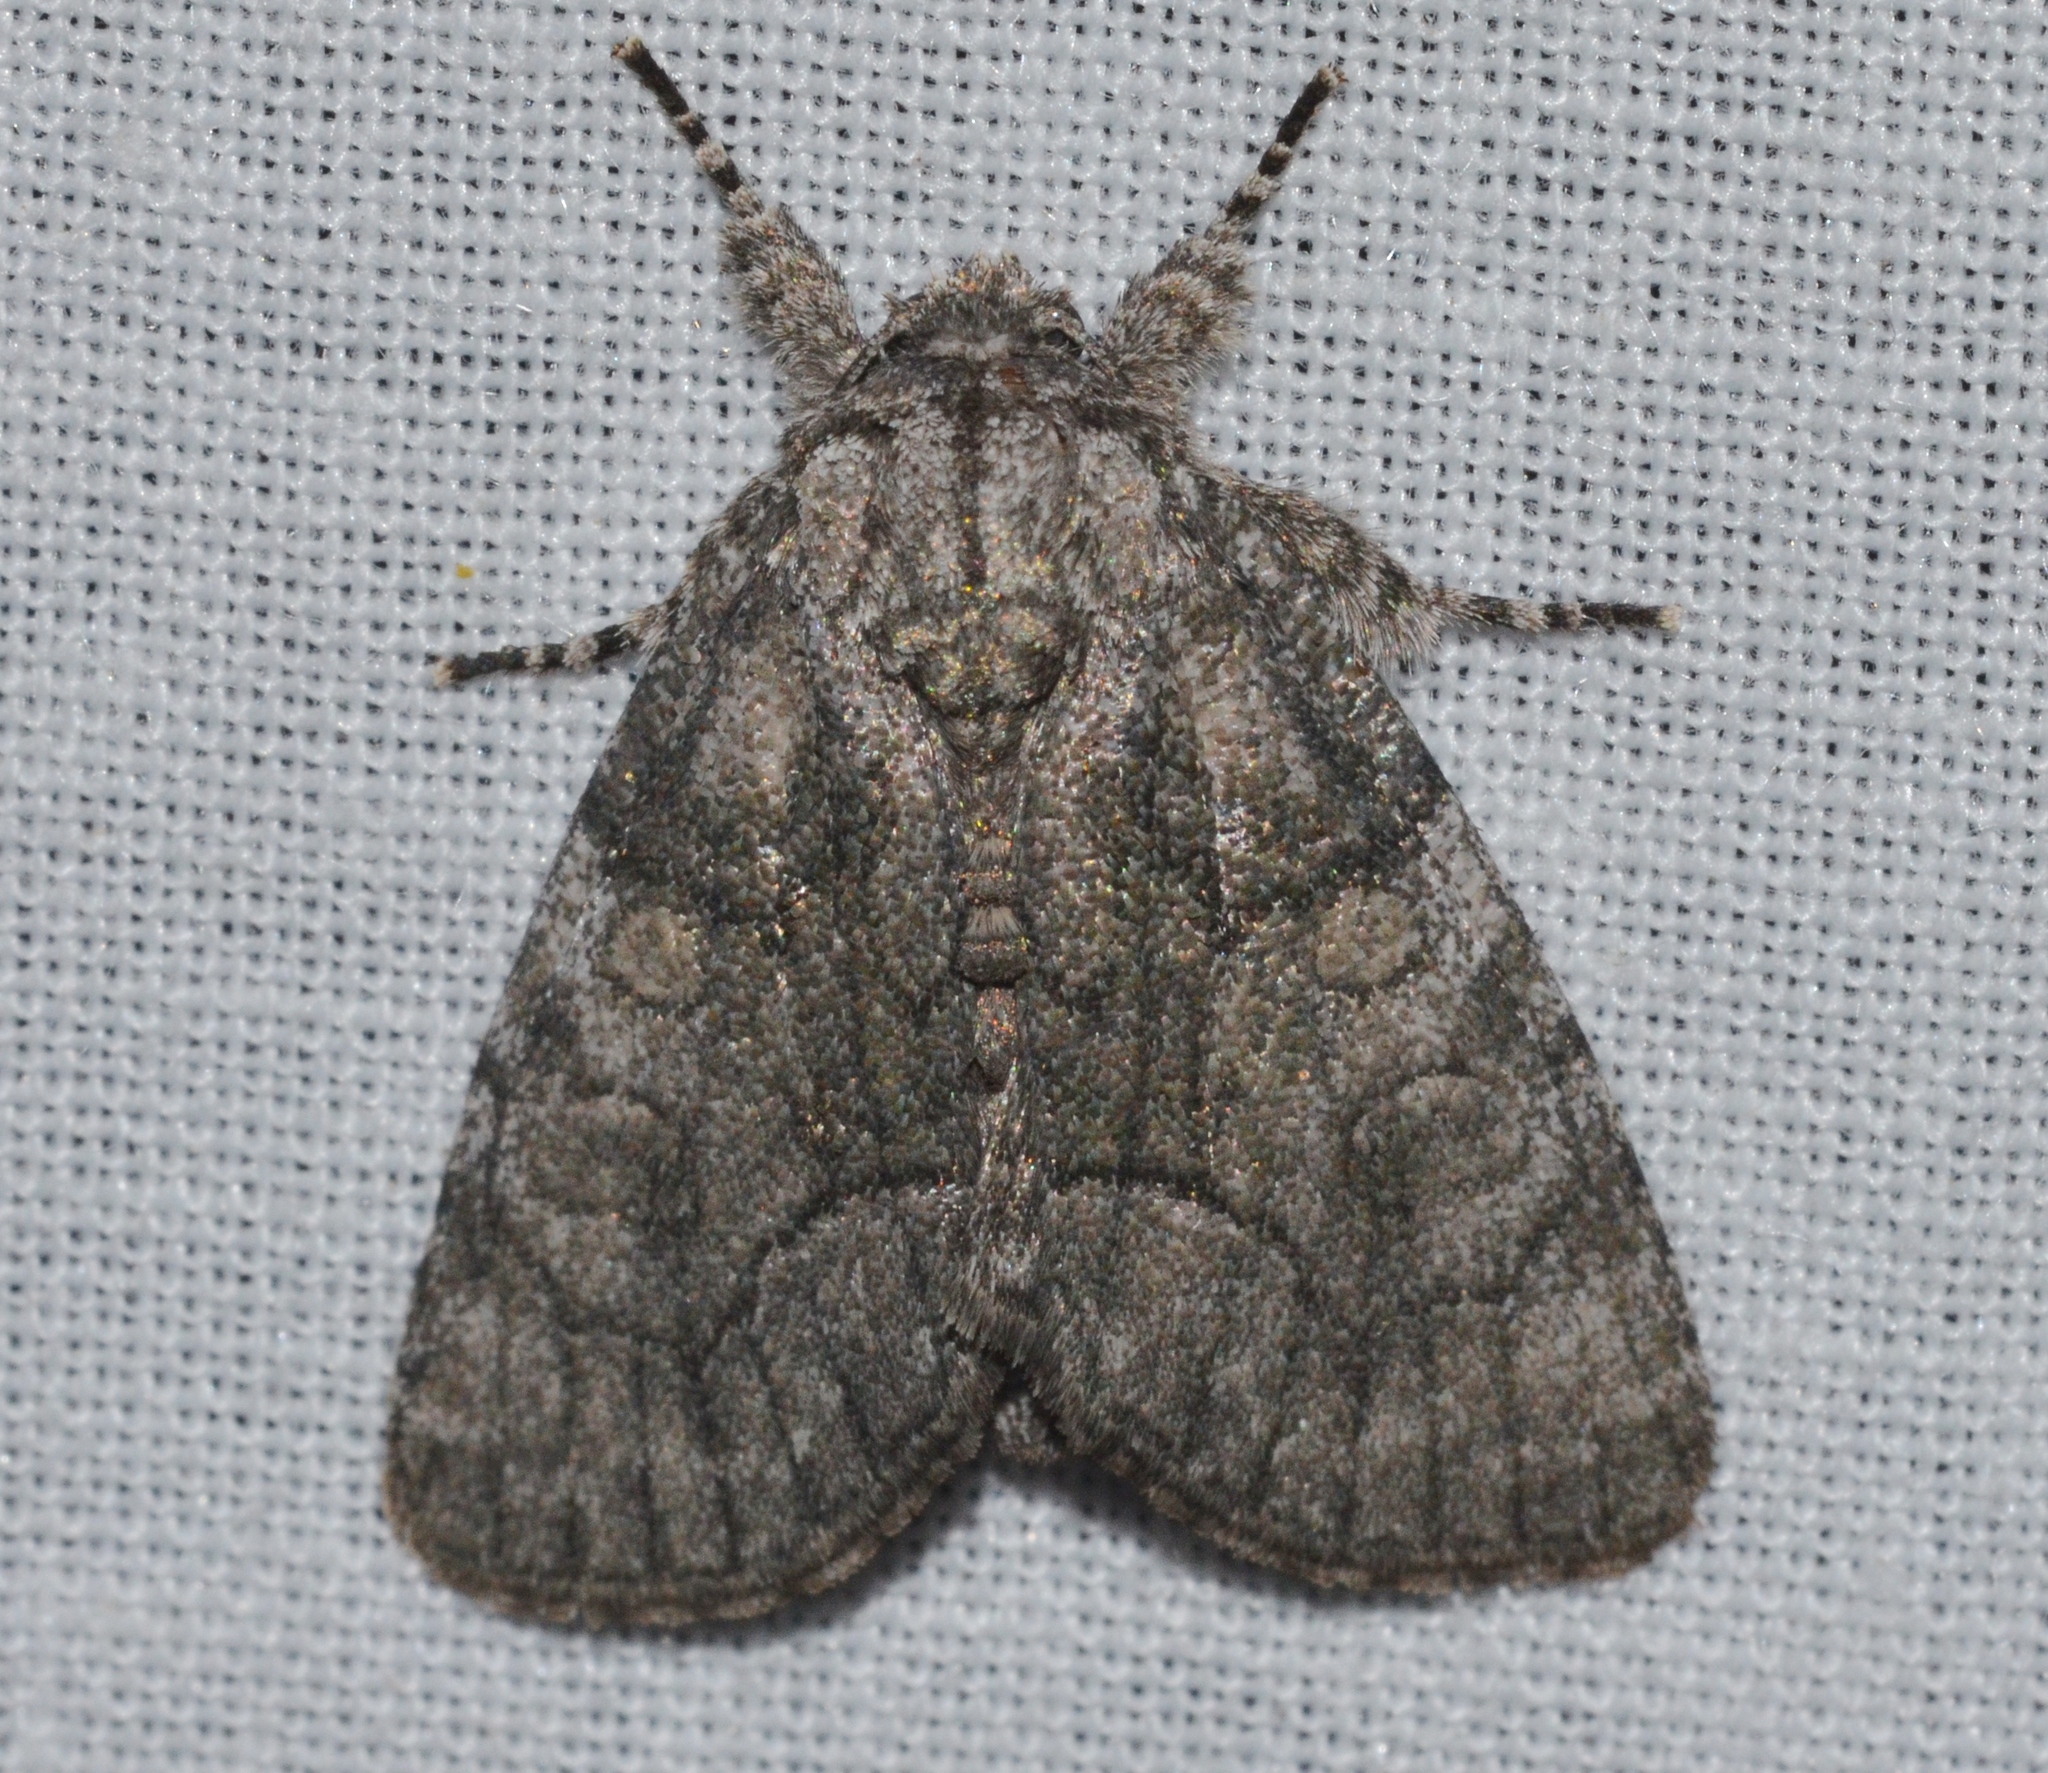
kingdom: Animalia
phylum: Arthropoda
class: Insecta
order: Lepidoptera
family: Noctuidae
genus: Raphia
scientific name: Raphia frater
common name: Brother
